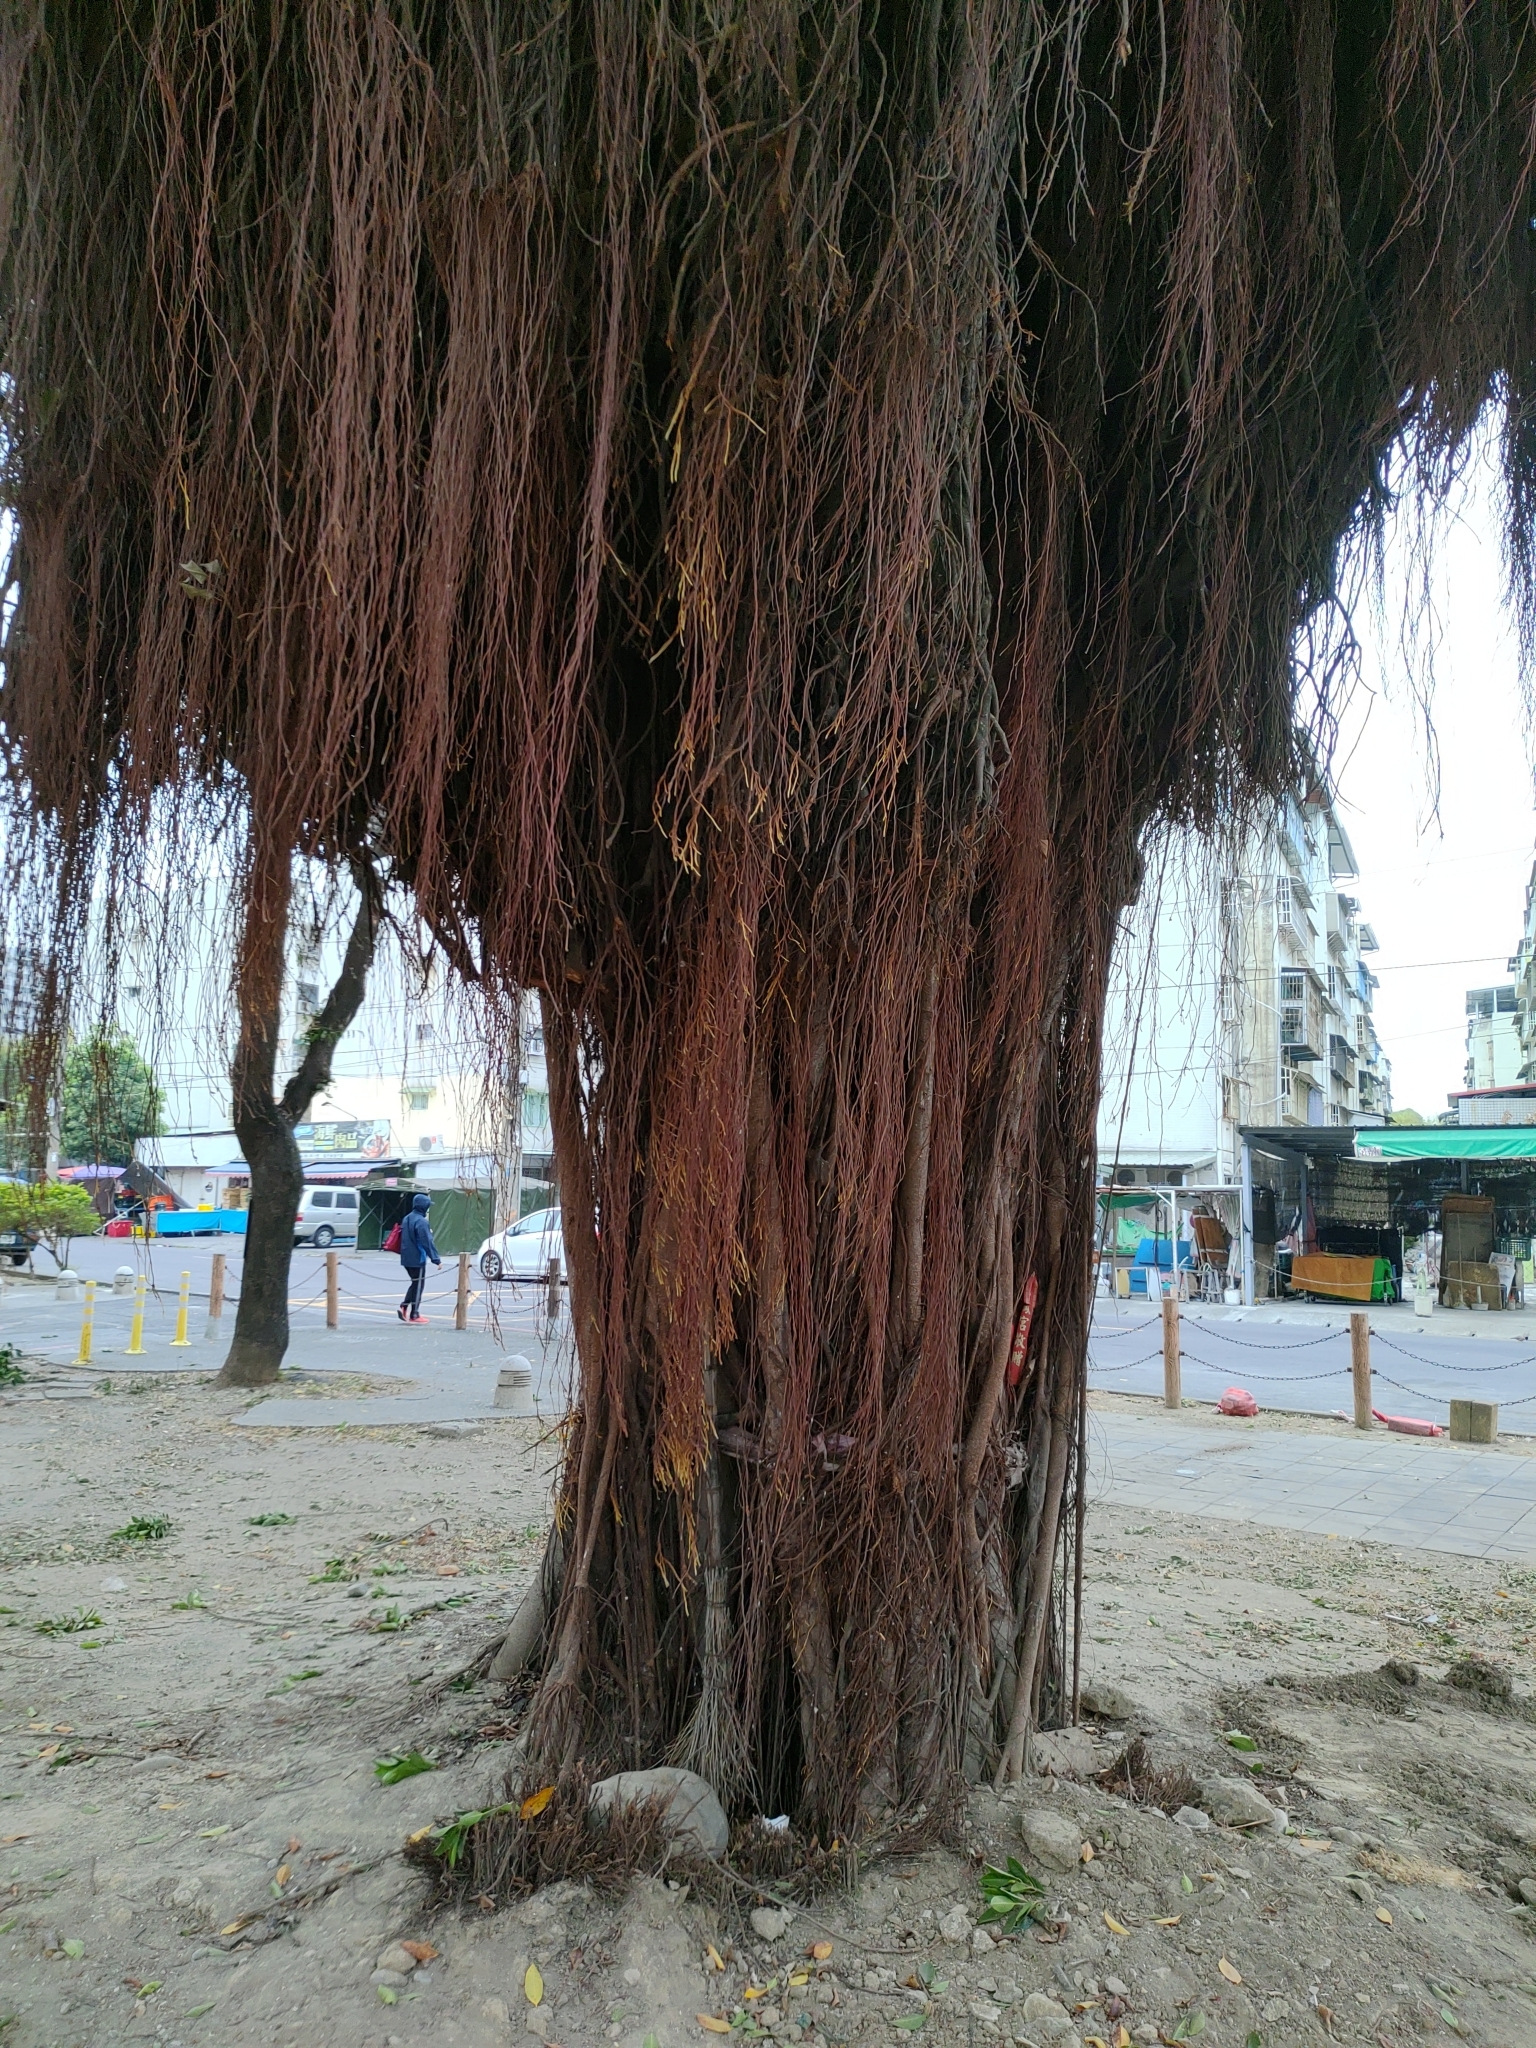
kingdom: Plantae
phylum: Tracheophyta
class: Magnoliopsida
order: Rosales
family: Moraceae
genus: Ficus
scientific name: Ficus microcarpa
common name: Chinese banyan
